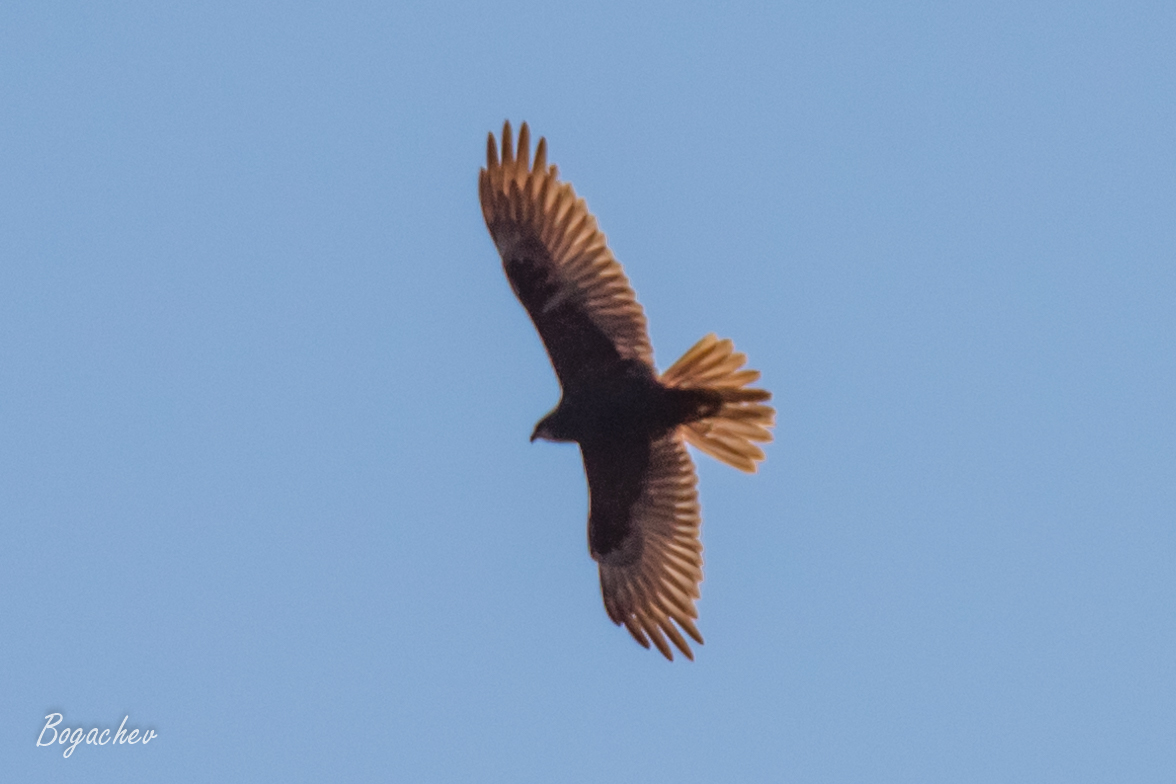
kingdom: Animalia
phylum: Chordata
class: Aves
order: Accipitriformes
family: Accipitridae
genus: Circus
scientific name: Circus aeruginosus
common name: Western marsh harrier
